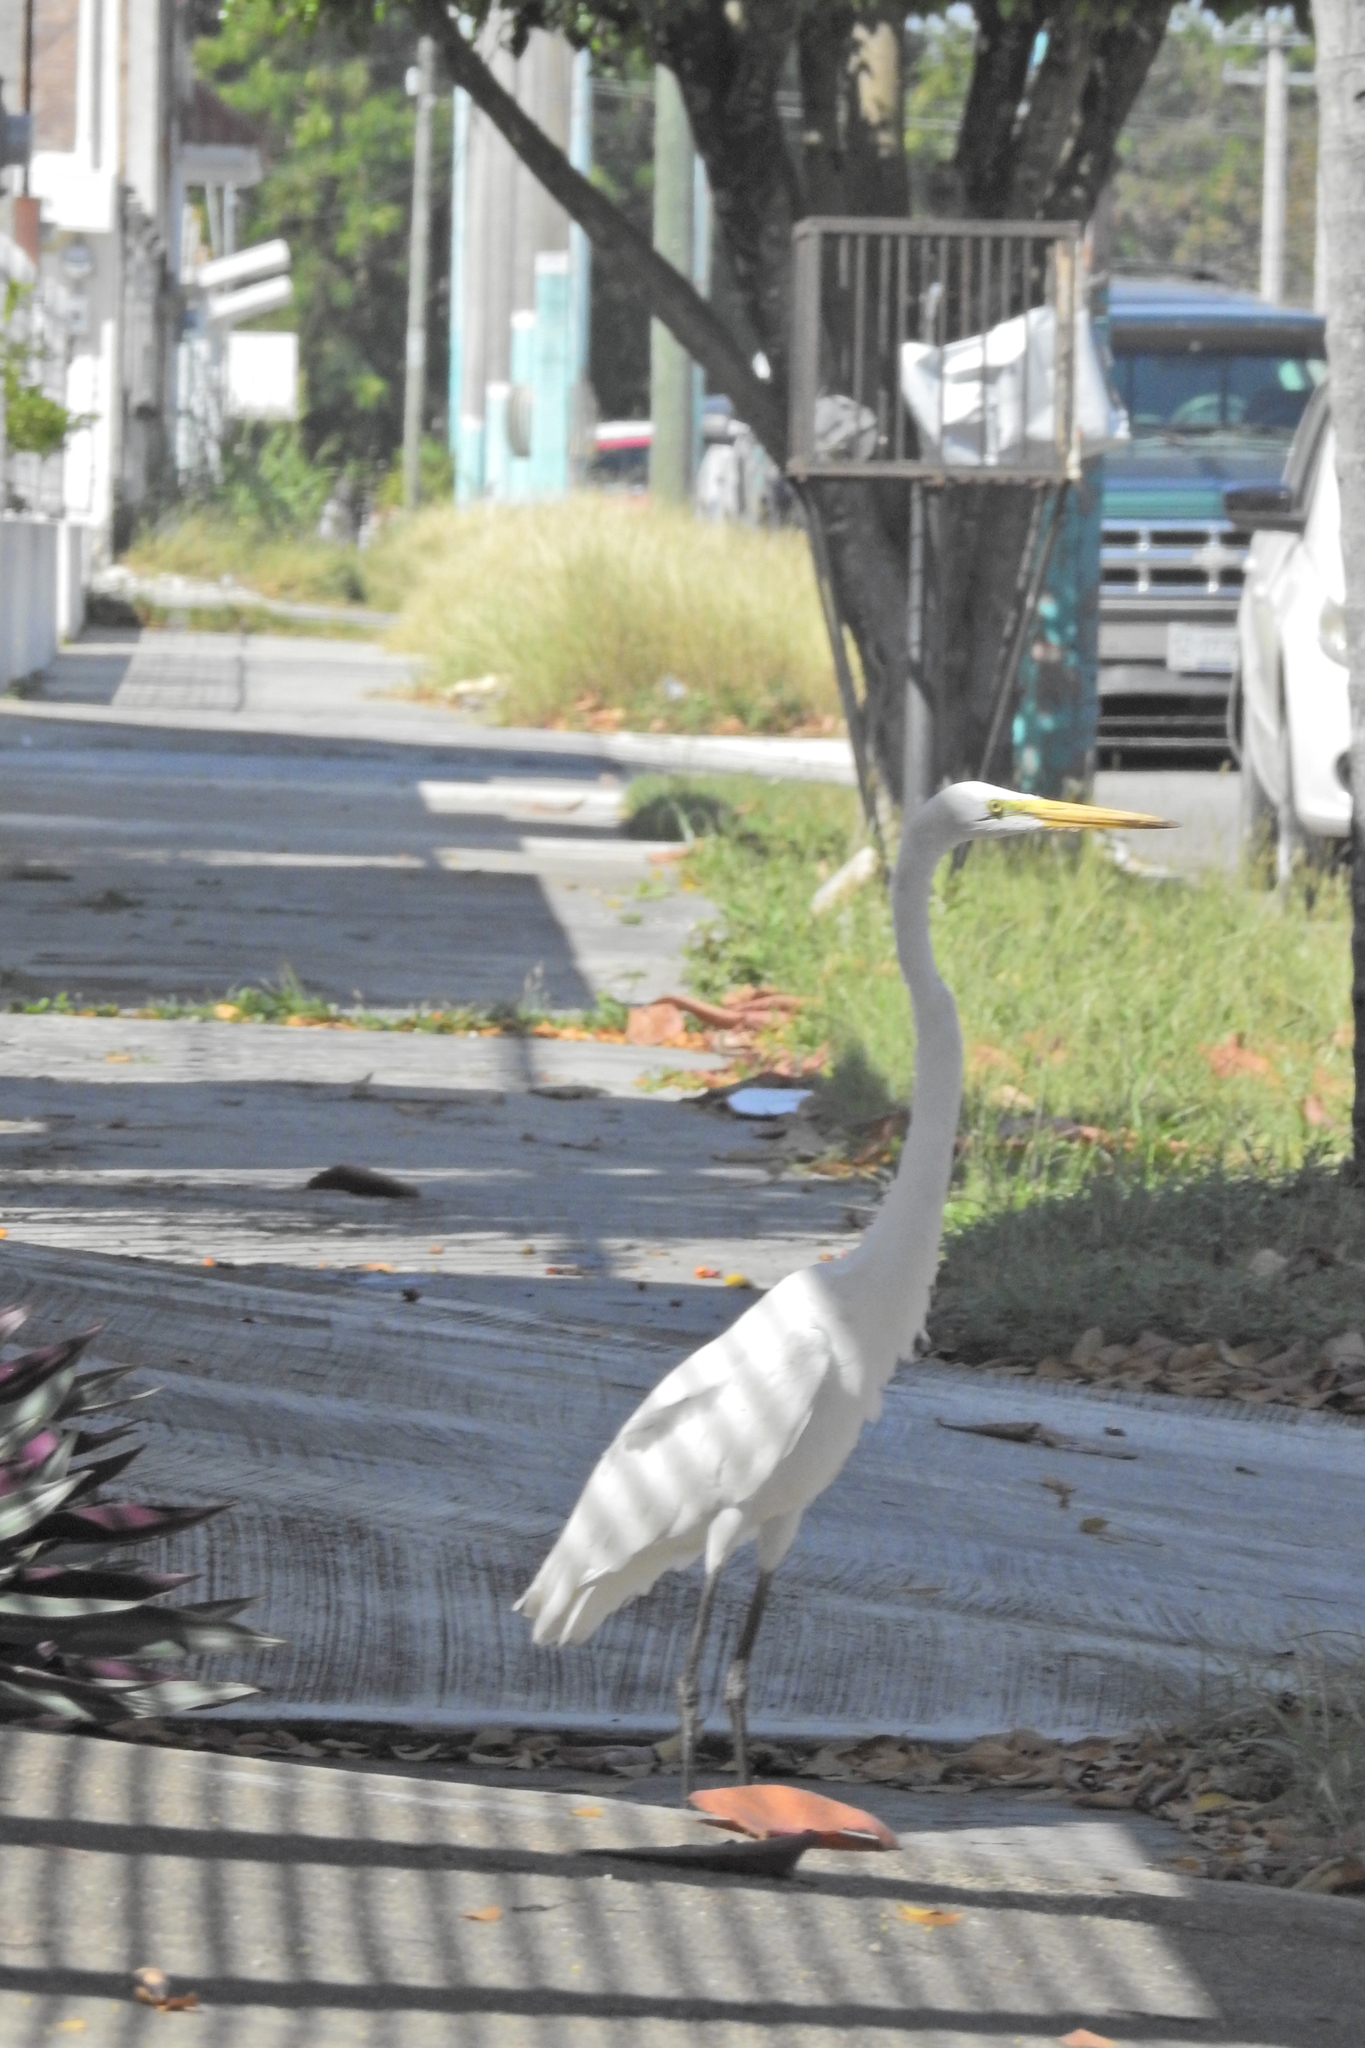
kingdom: Animalia
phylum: Chordata
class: Aves
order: Pelecaniformes
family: Ardeidae
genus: Ardea
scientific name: Ardea alba
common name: Great egret
